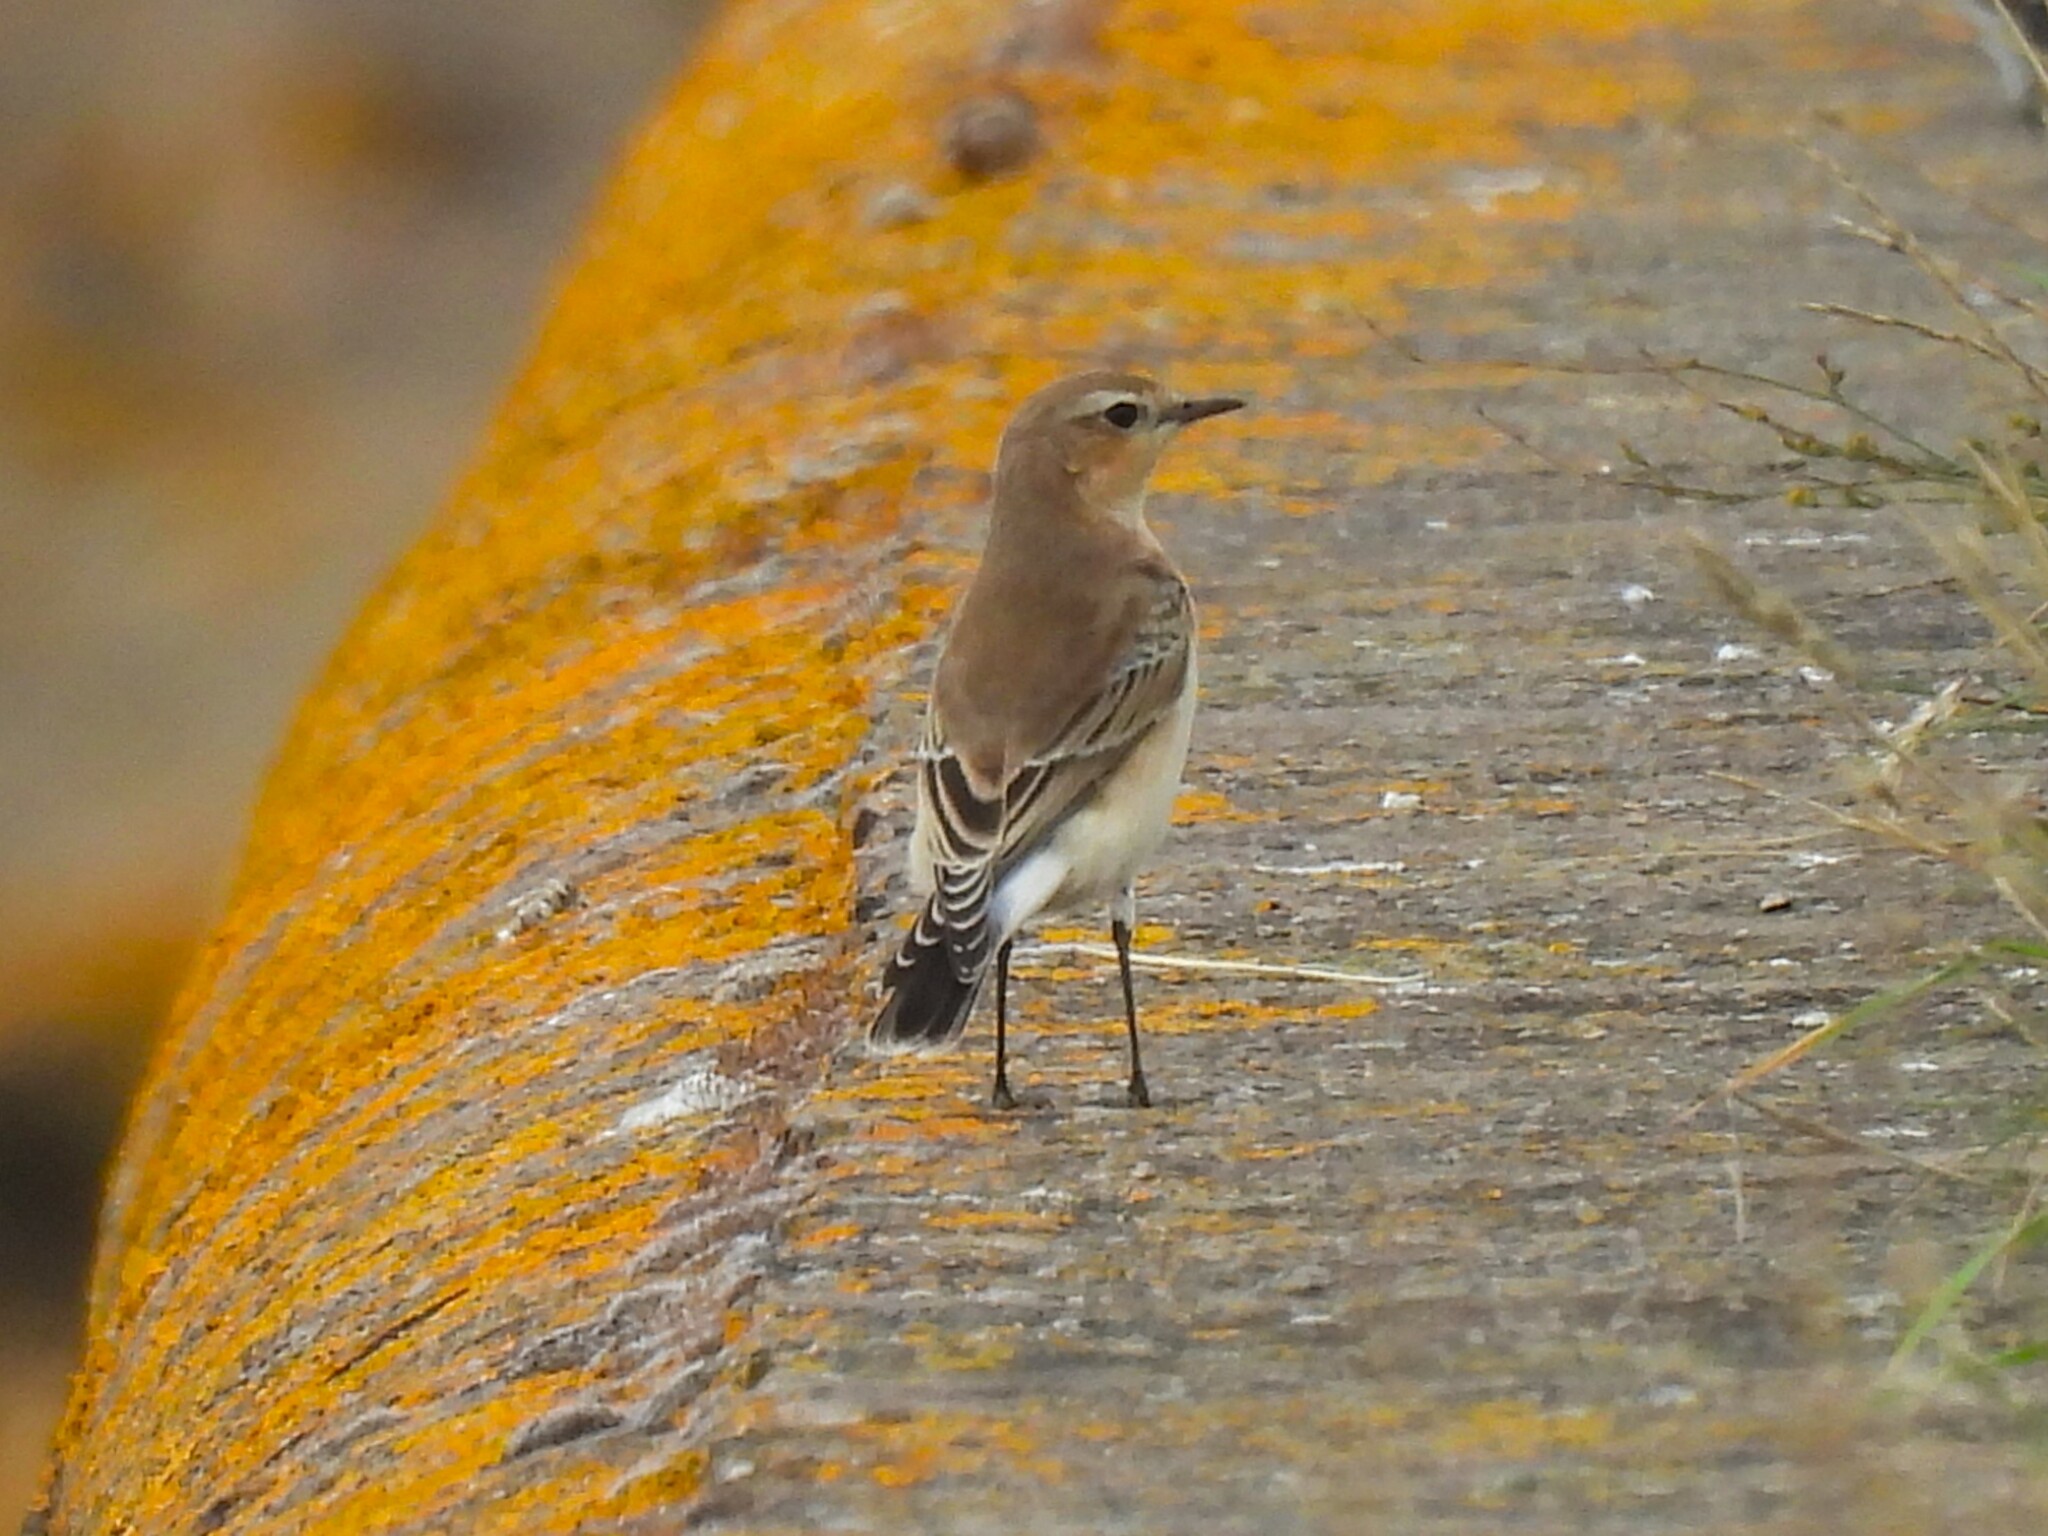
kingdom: Animalia
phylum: Chordata
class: Aves
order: Passeriformes
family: Muscicapidae
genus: Oenanthe
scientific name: Oenanthe oenanthe
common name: Northern wheatear
